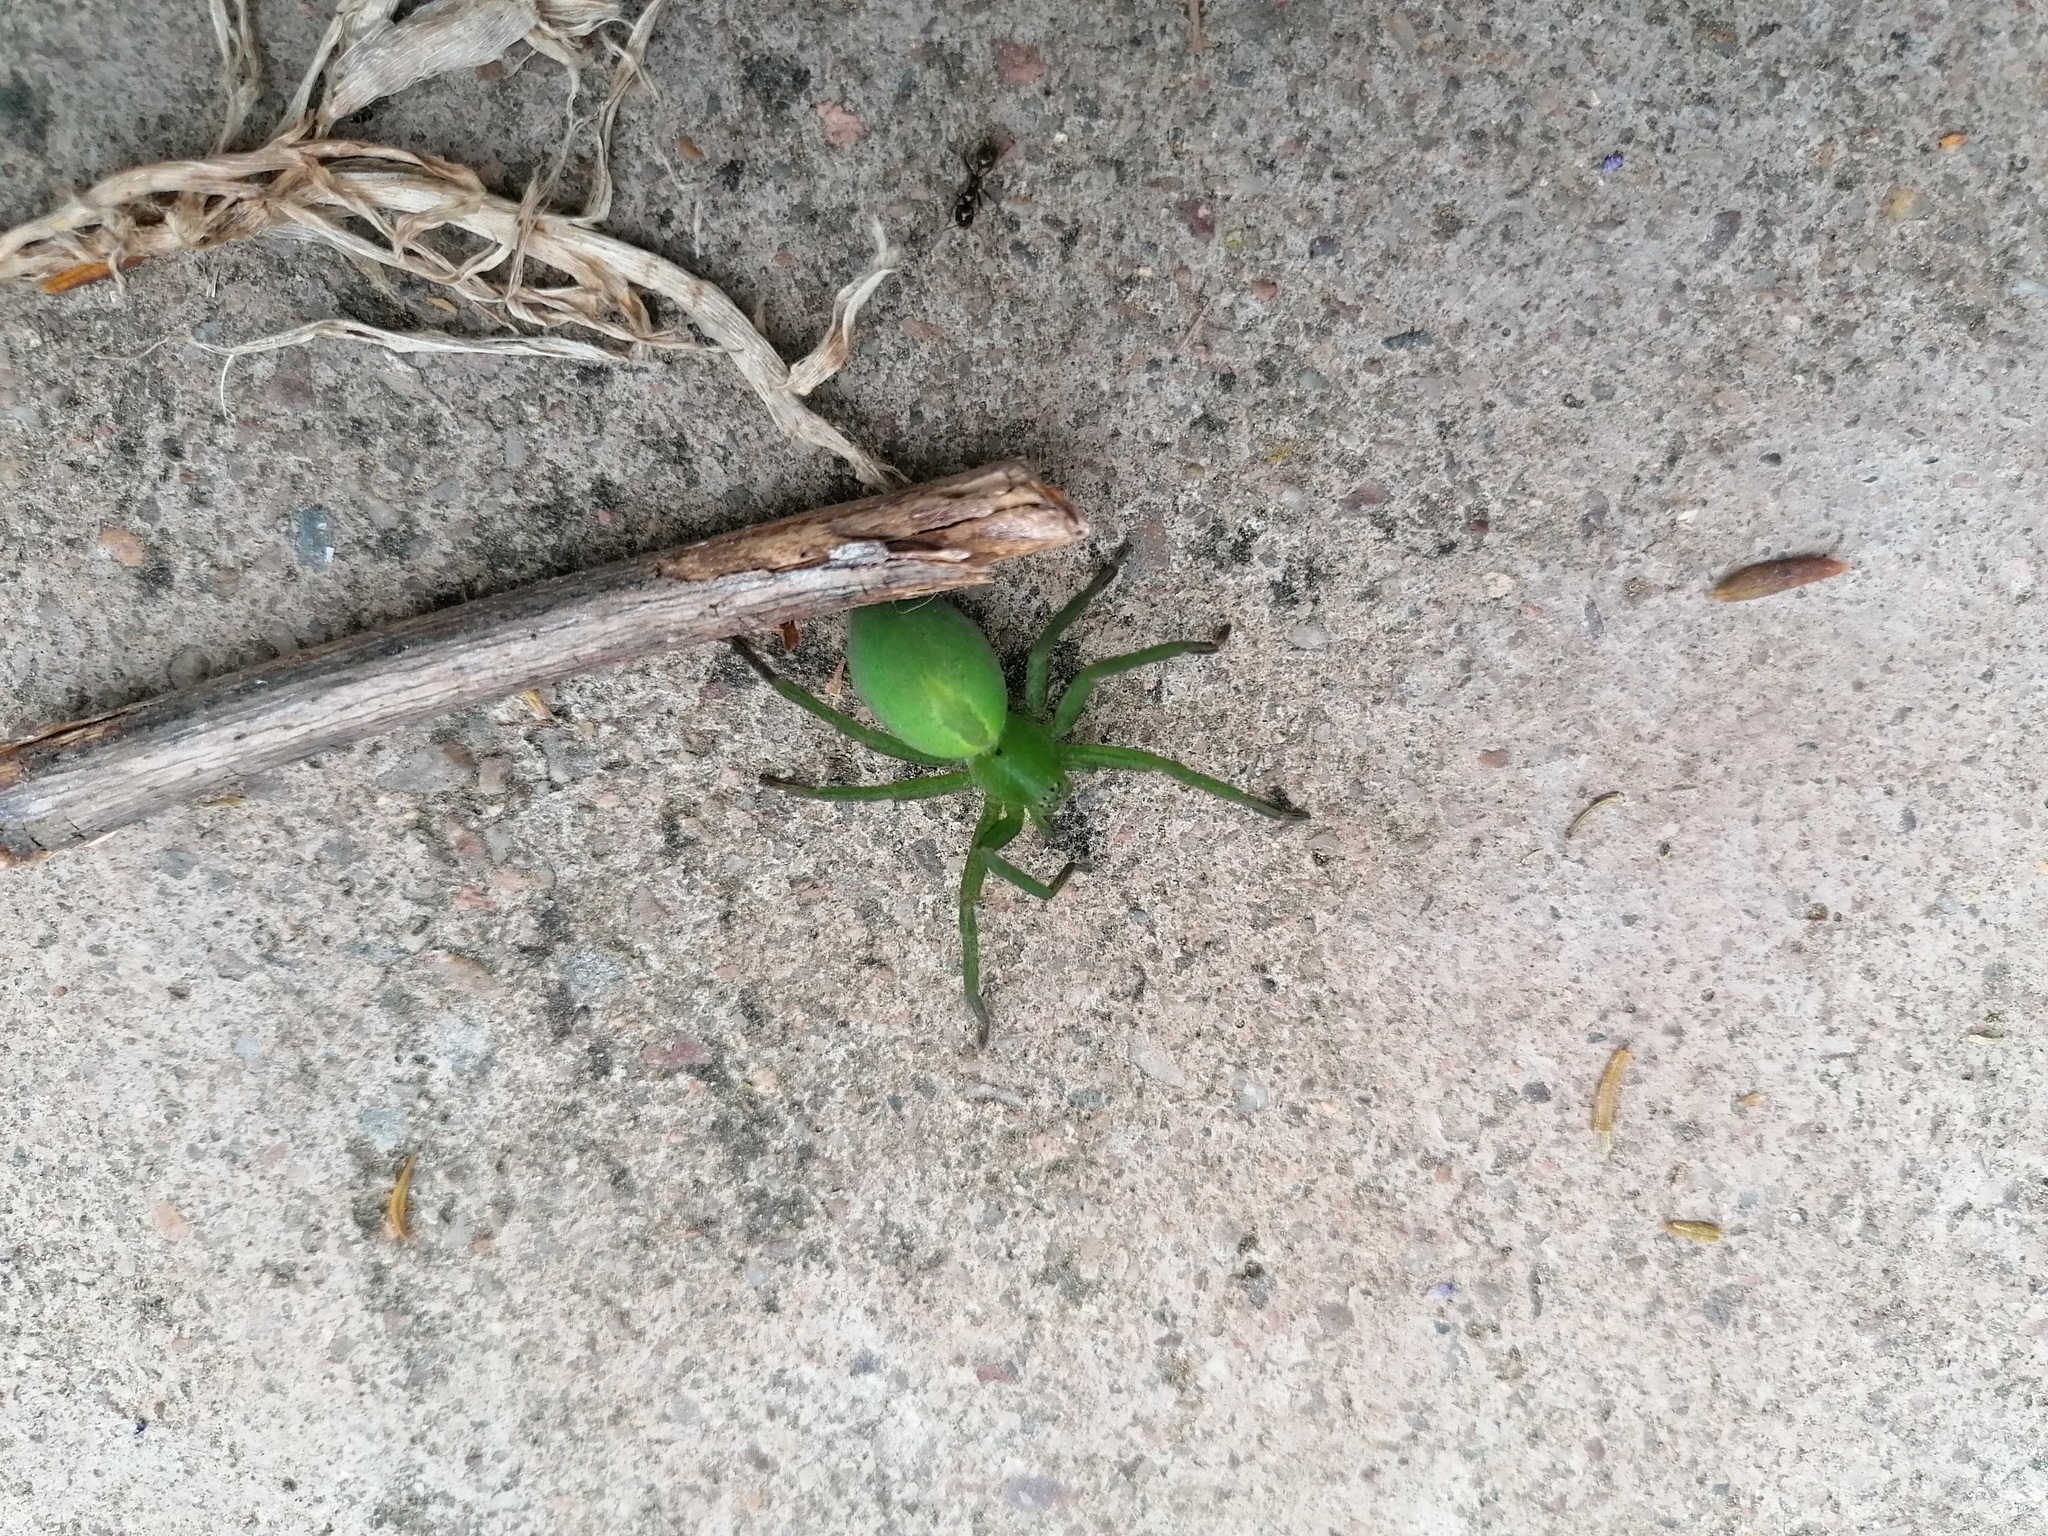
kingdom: Animalia
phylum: Arthropoda
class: Arachnida
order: Araneae
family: Sparassidae
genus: Micrommata
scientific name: Micrommata ligurina
